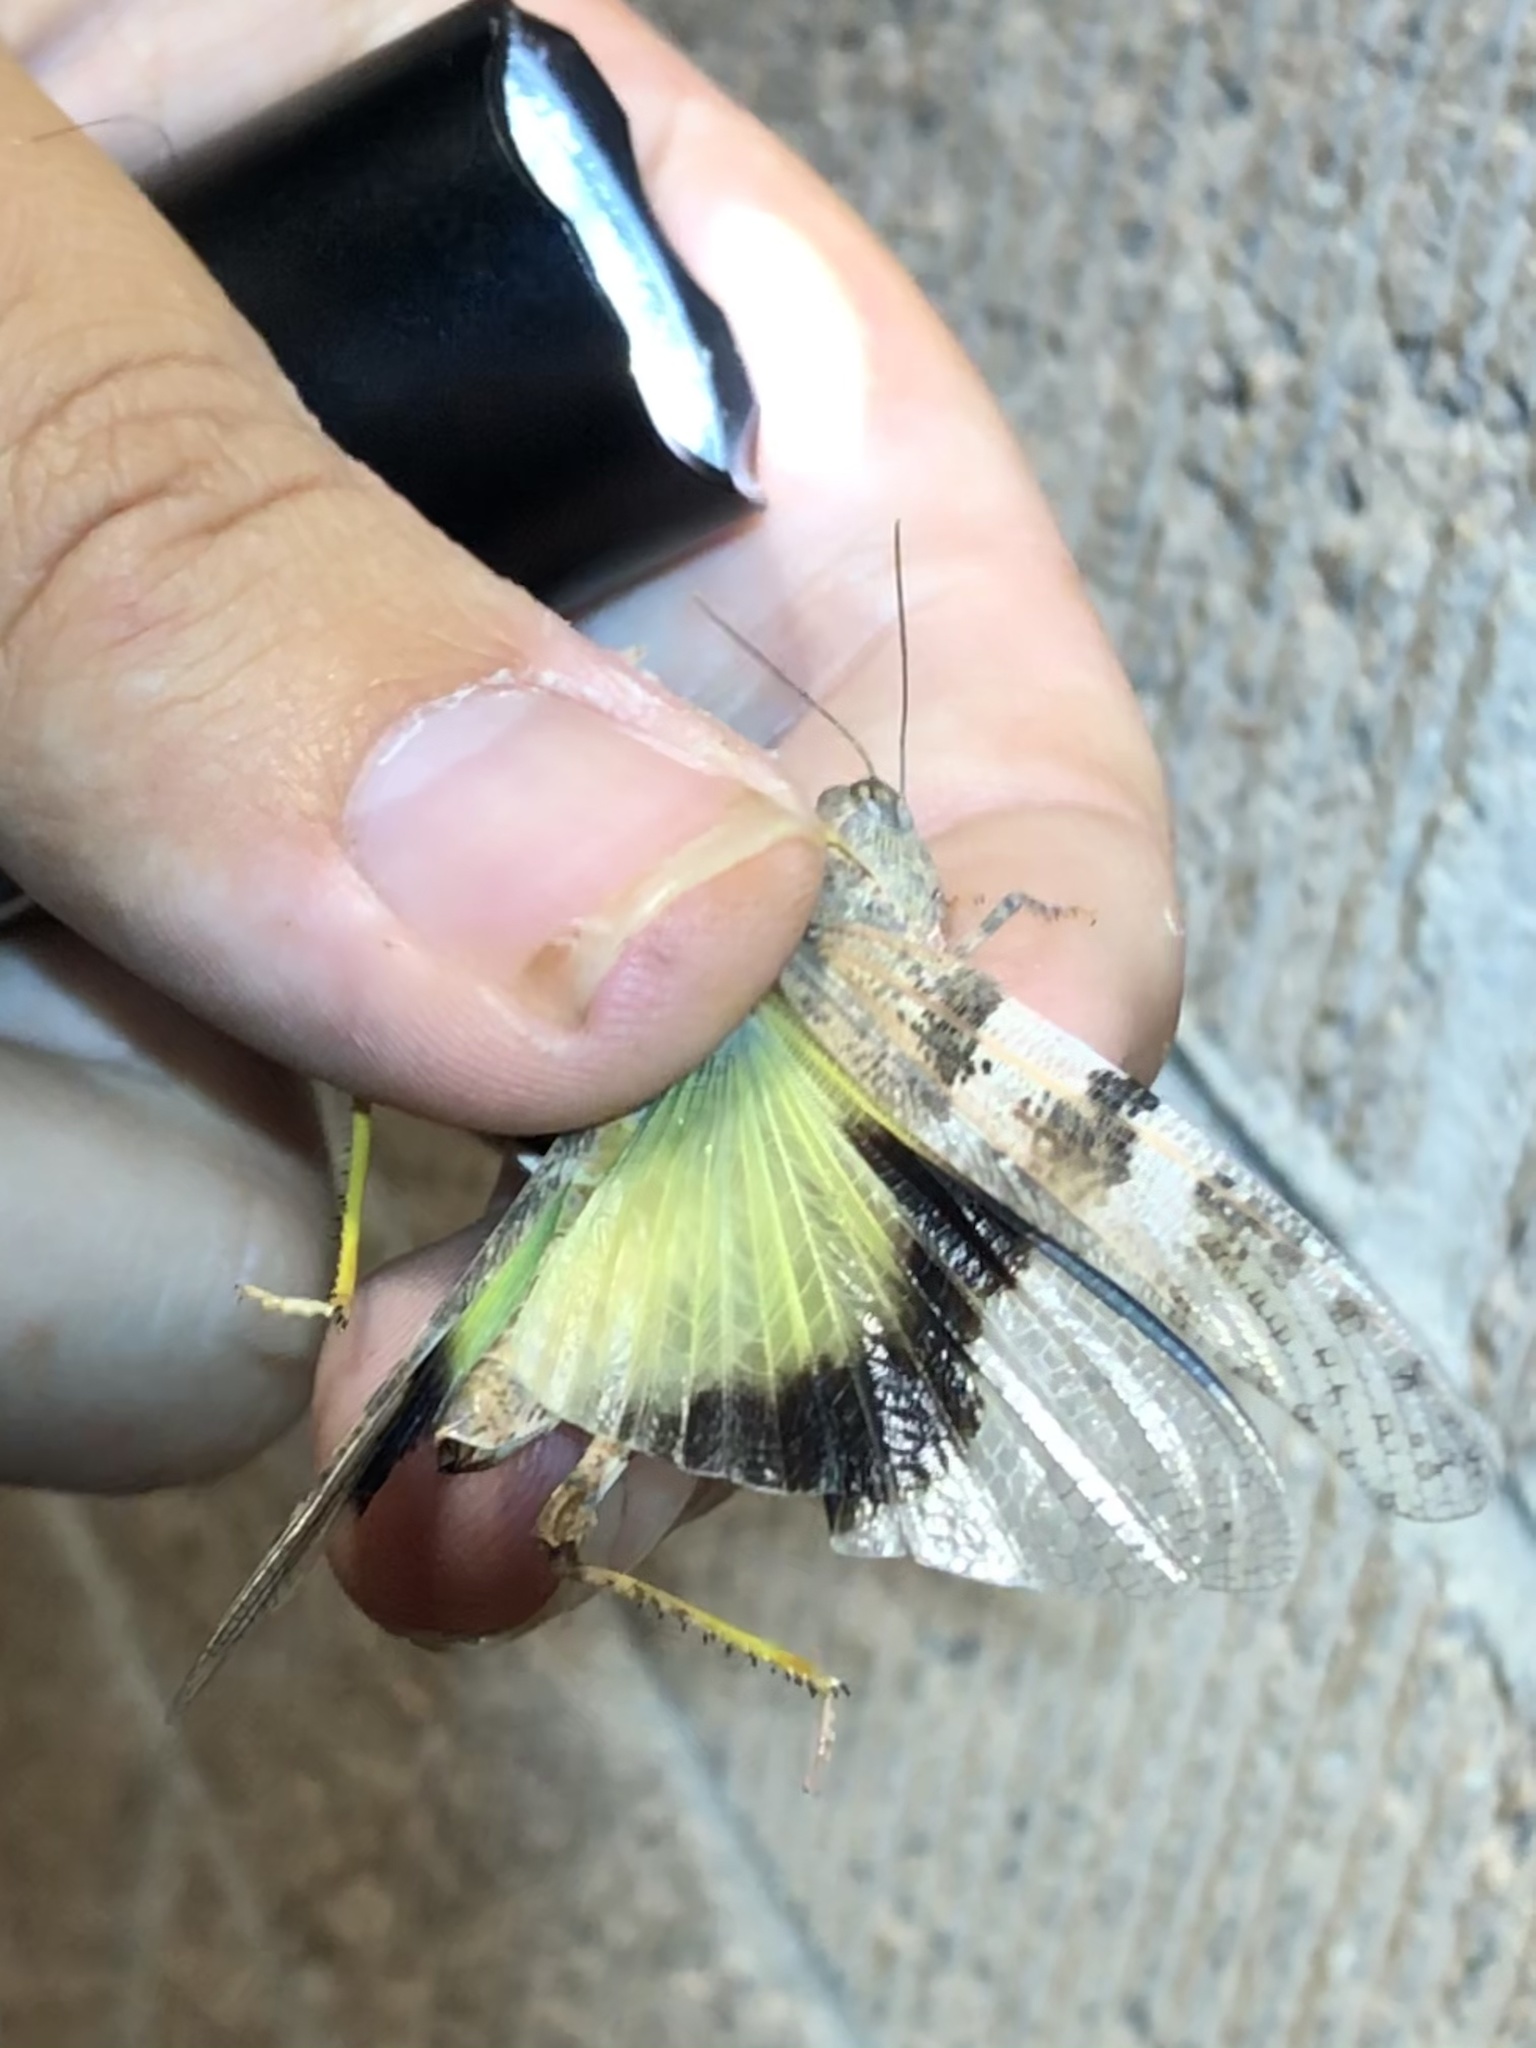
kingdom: Animalia
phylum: Arthropoda
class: Insecta
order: Orthoptera
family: Acrididae
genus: Trimerotropis
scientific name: Trimerotropis pallidipennis
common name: Pallid-winged grasshopper
